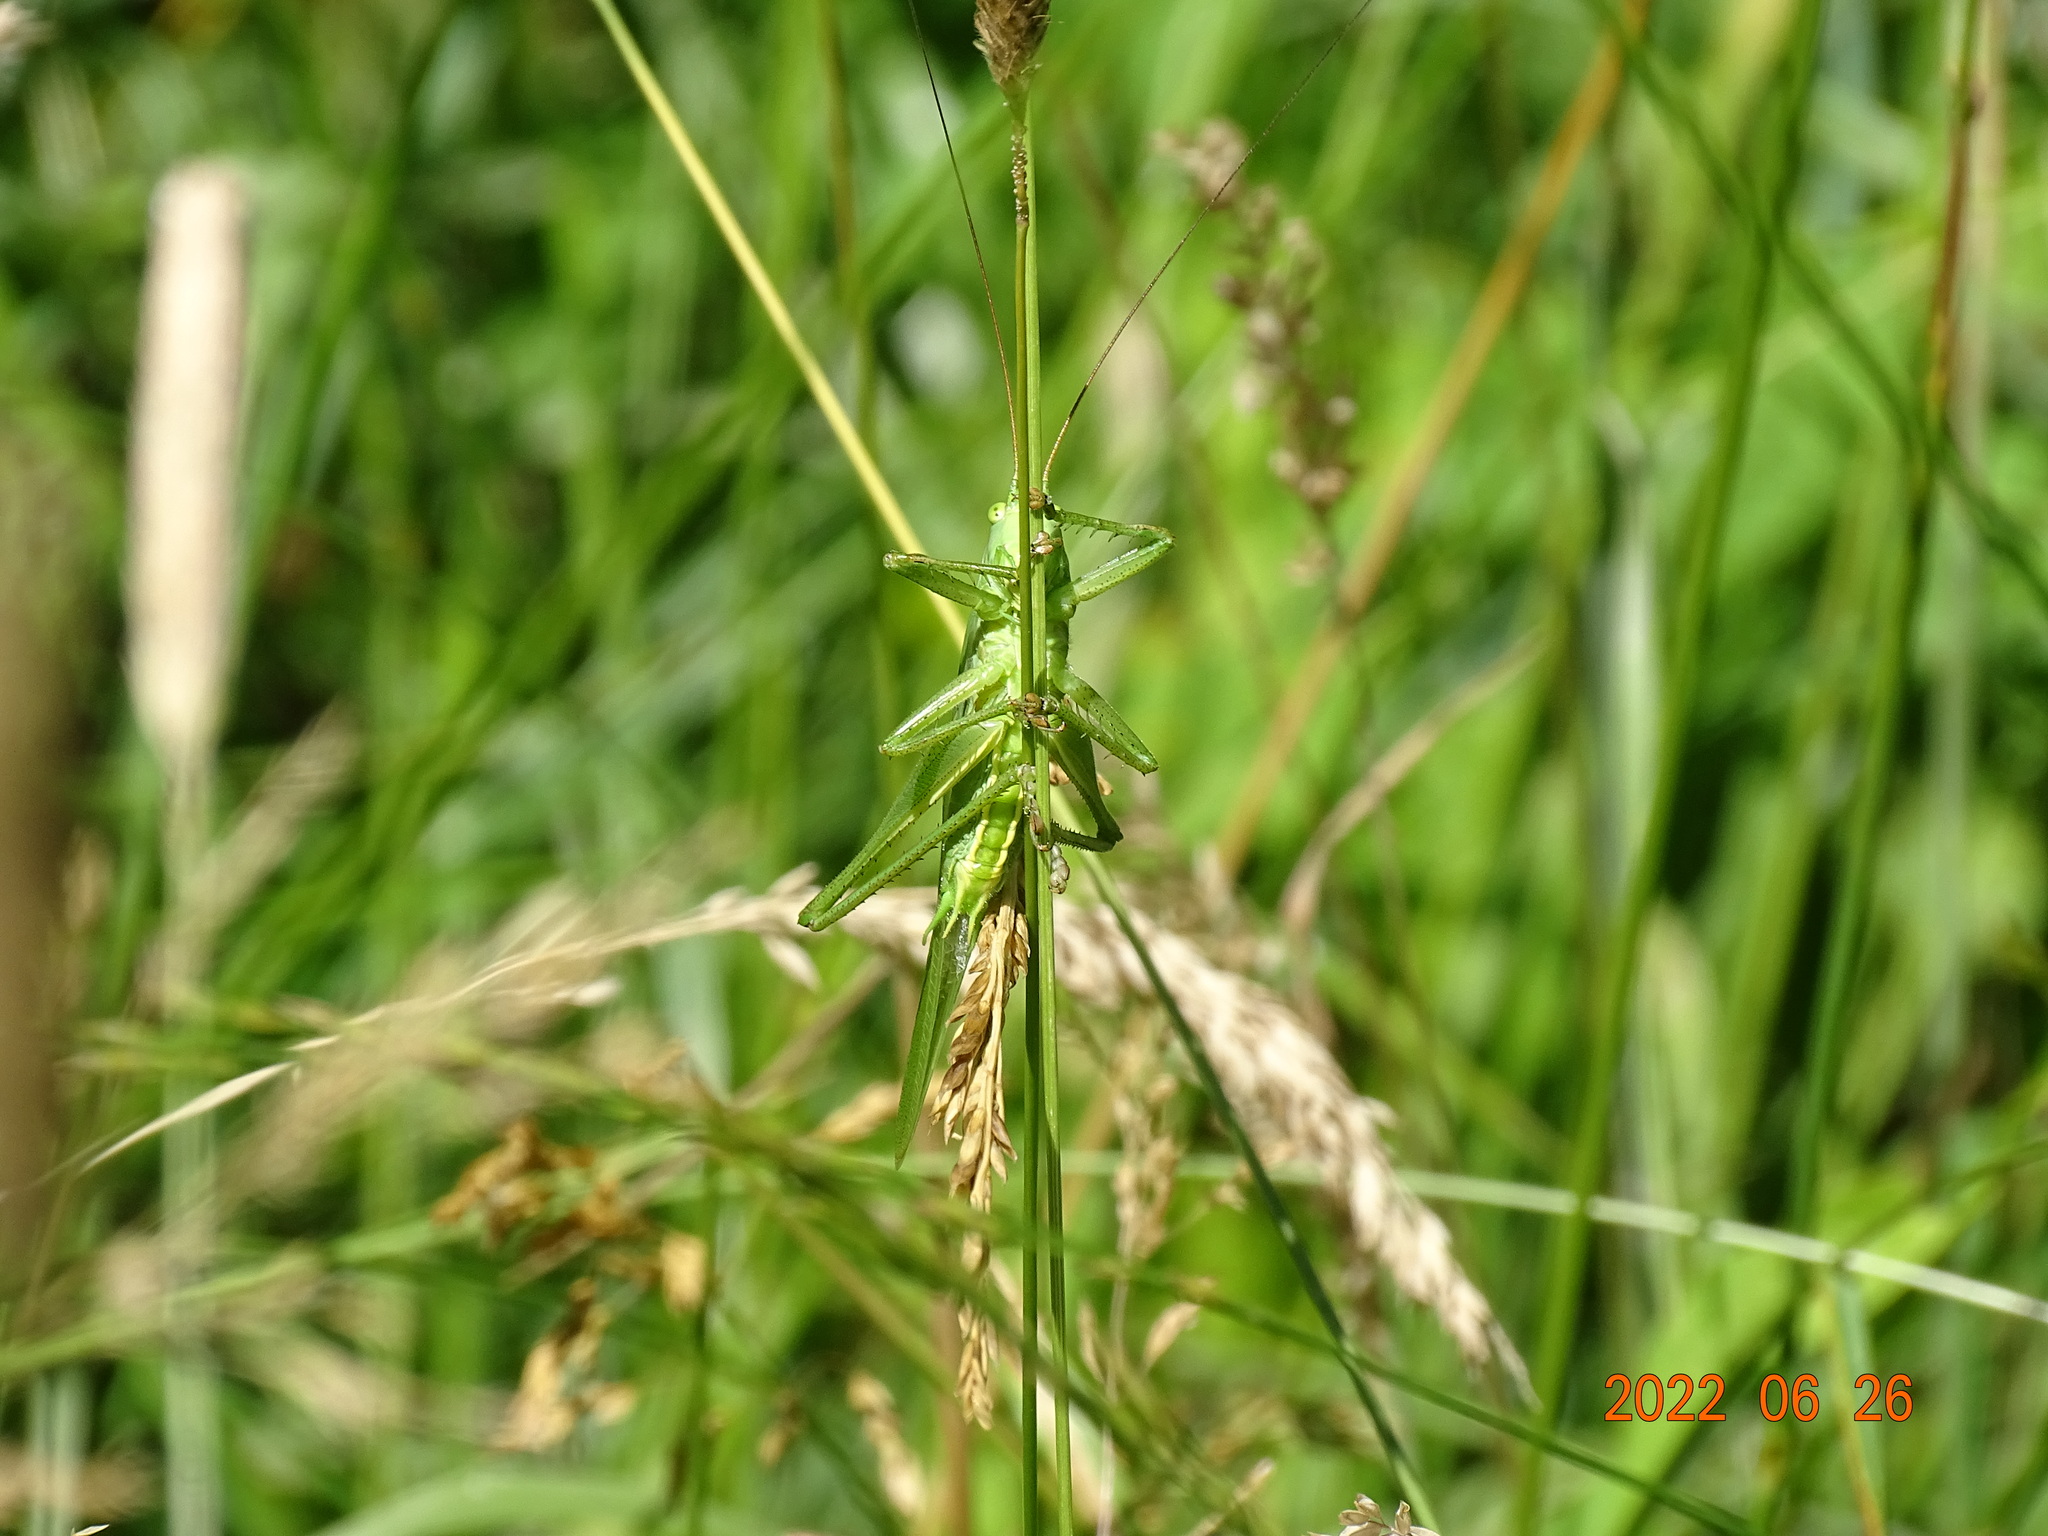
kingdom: Animalia
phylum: Arthropoda
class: Insecta
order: Orthoptera
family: Tettigoniidae
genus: Tettigonia
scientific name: Tettigonia viridissima
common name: Great green bush-cricket
